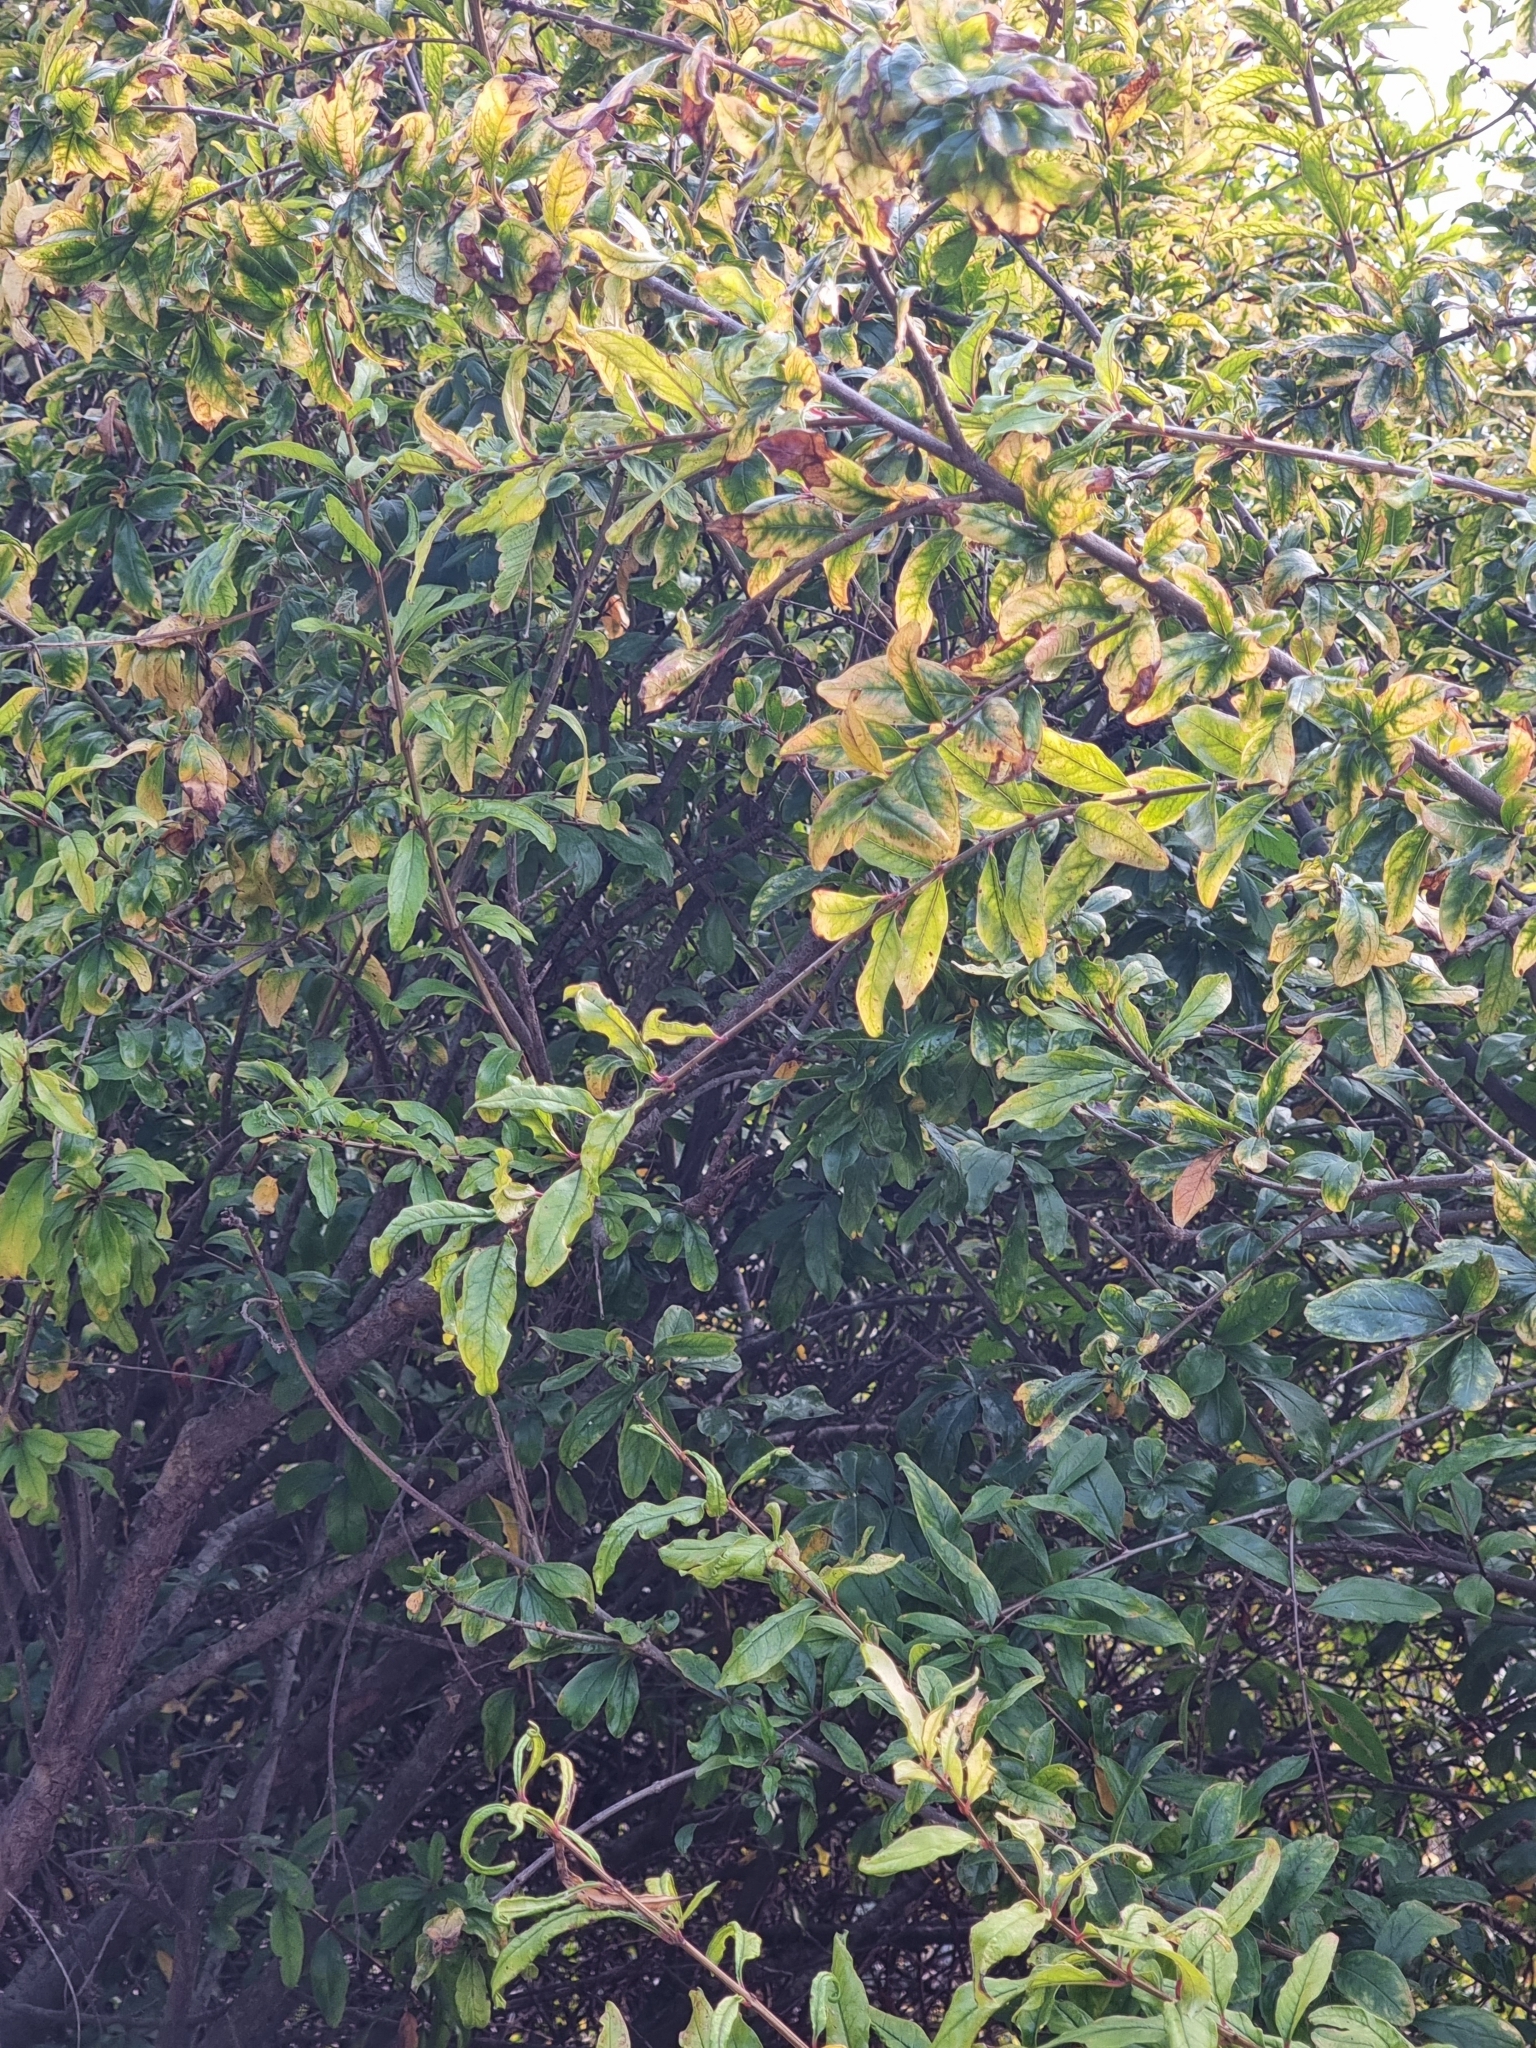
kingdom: Plantae
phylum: Tracheophyta
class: Magnoliopsida
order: Myrtales
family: Lythraceae
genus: Punica
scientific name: Punica granatum
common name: Pomegranate
